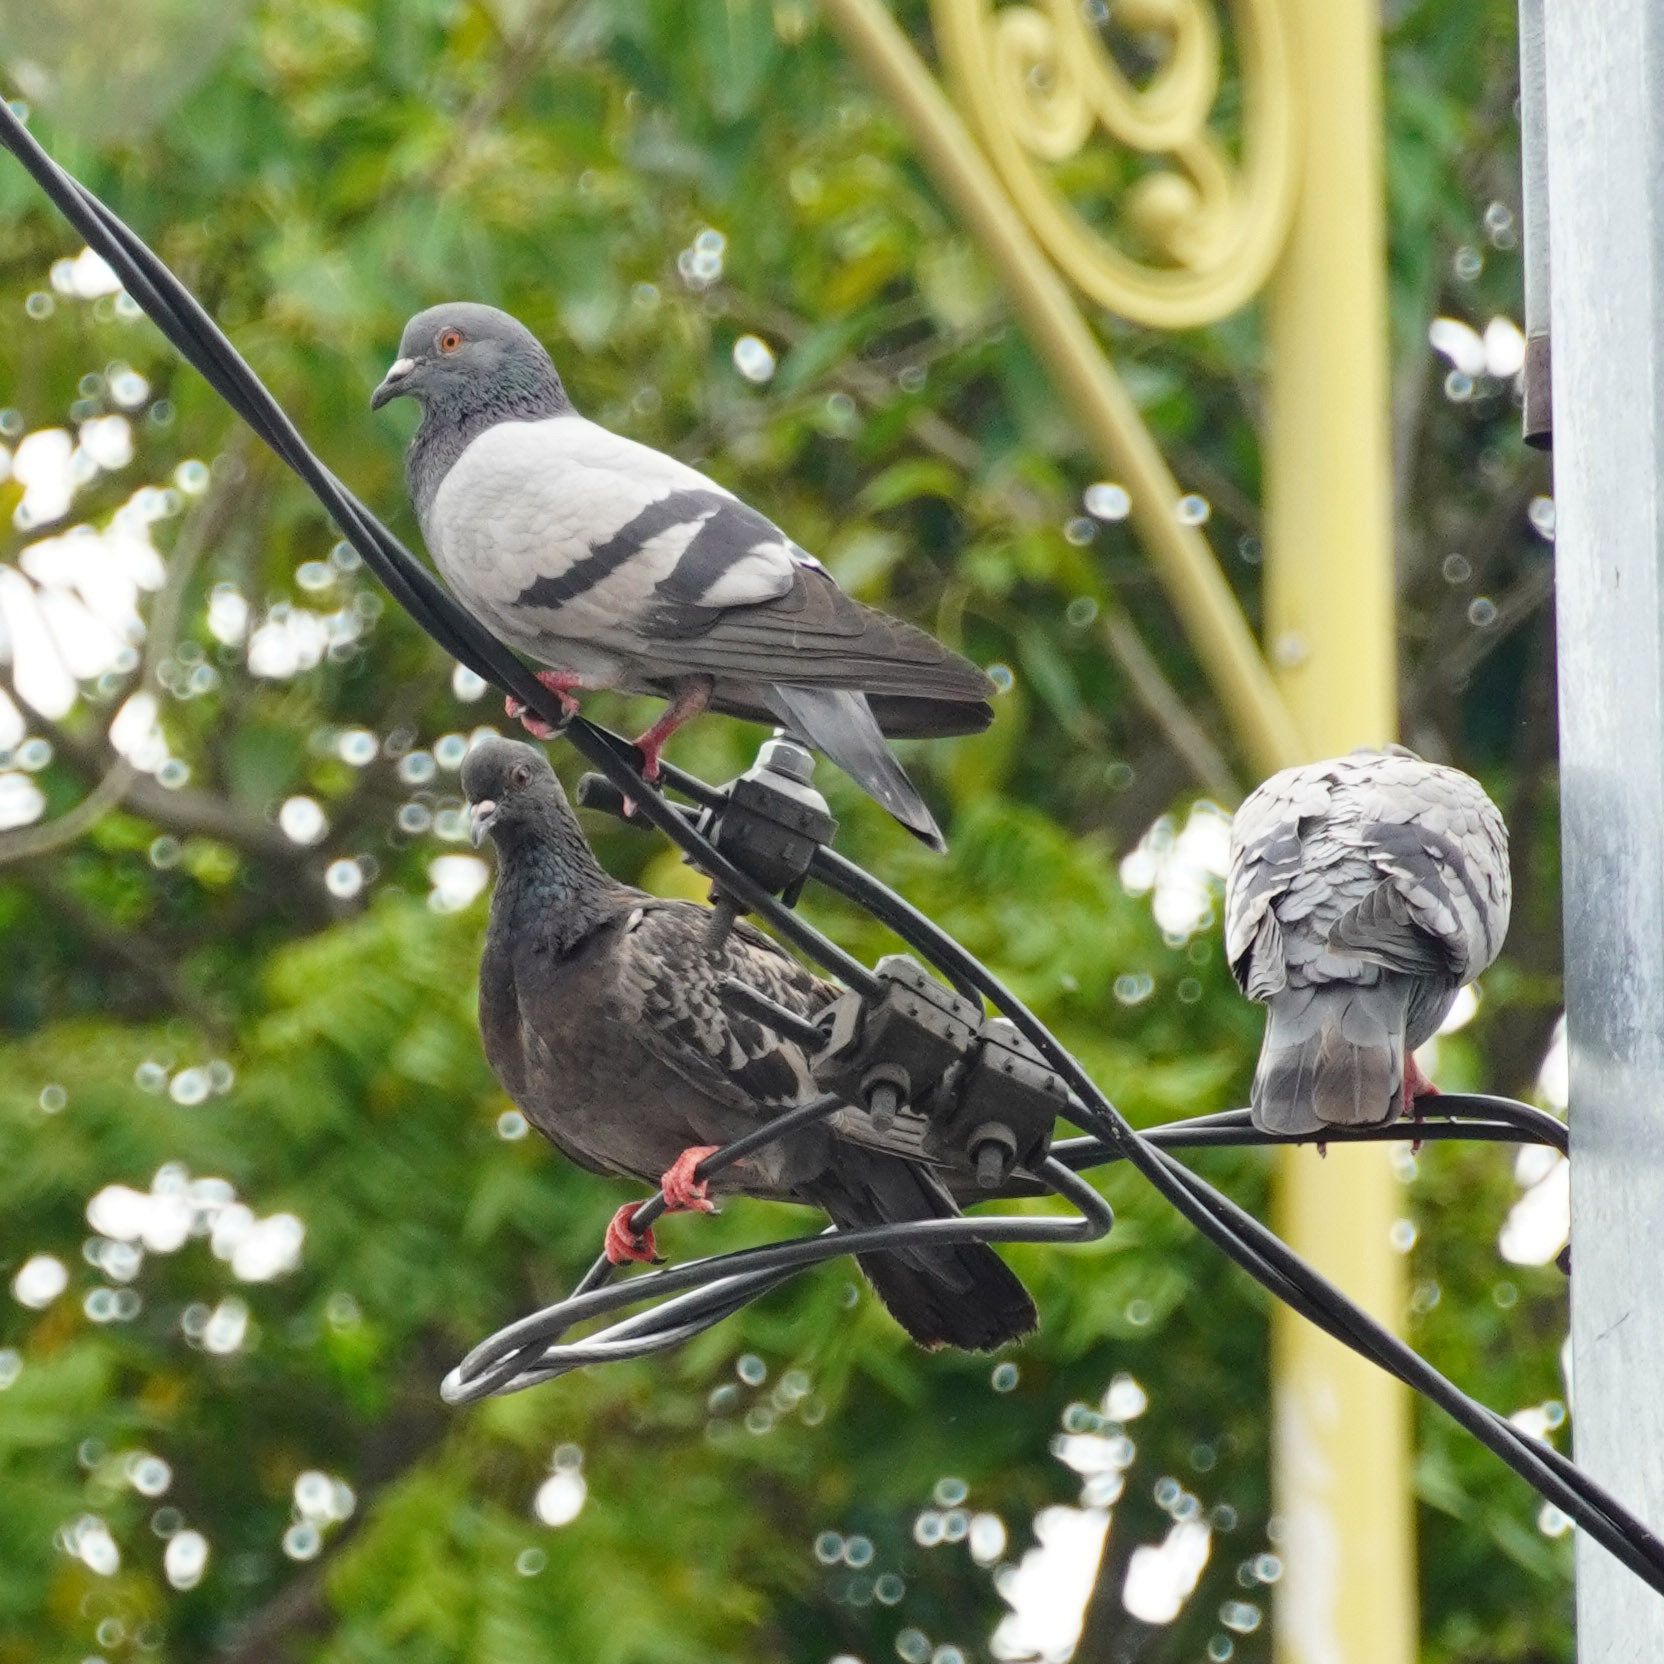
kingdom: Animalia
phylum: Chordata
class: Aves
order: Columbiformes
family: Columbidae
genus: Columba
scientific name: Columba livia
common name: Rock pigeon
